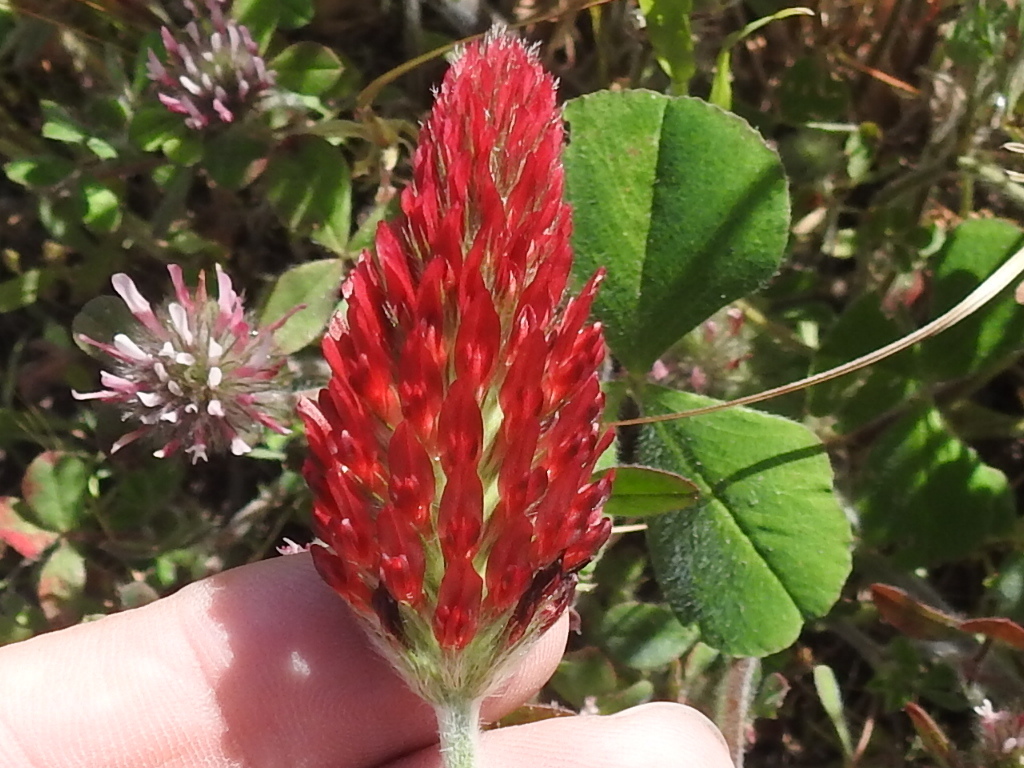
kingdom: Plantae
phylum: Tracheophyta
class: Magnoliopsida
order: Fabales
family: Fabaceae
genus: Trifolium
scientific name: Trifolium incarnatum
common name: Crimson clover
